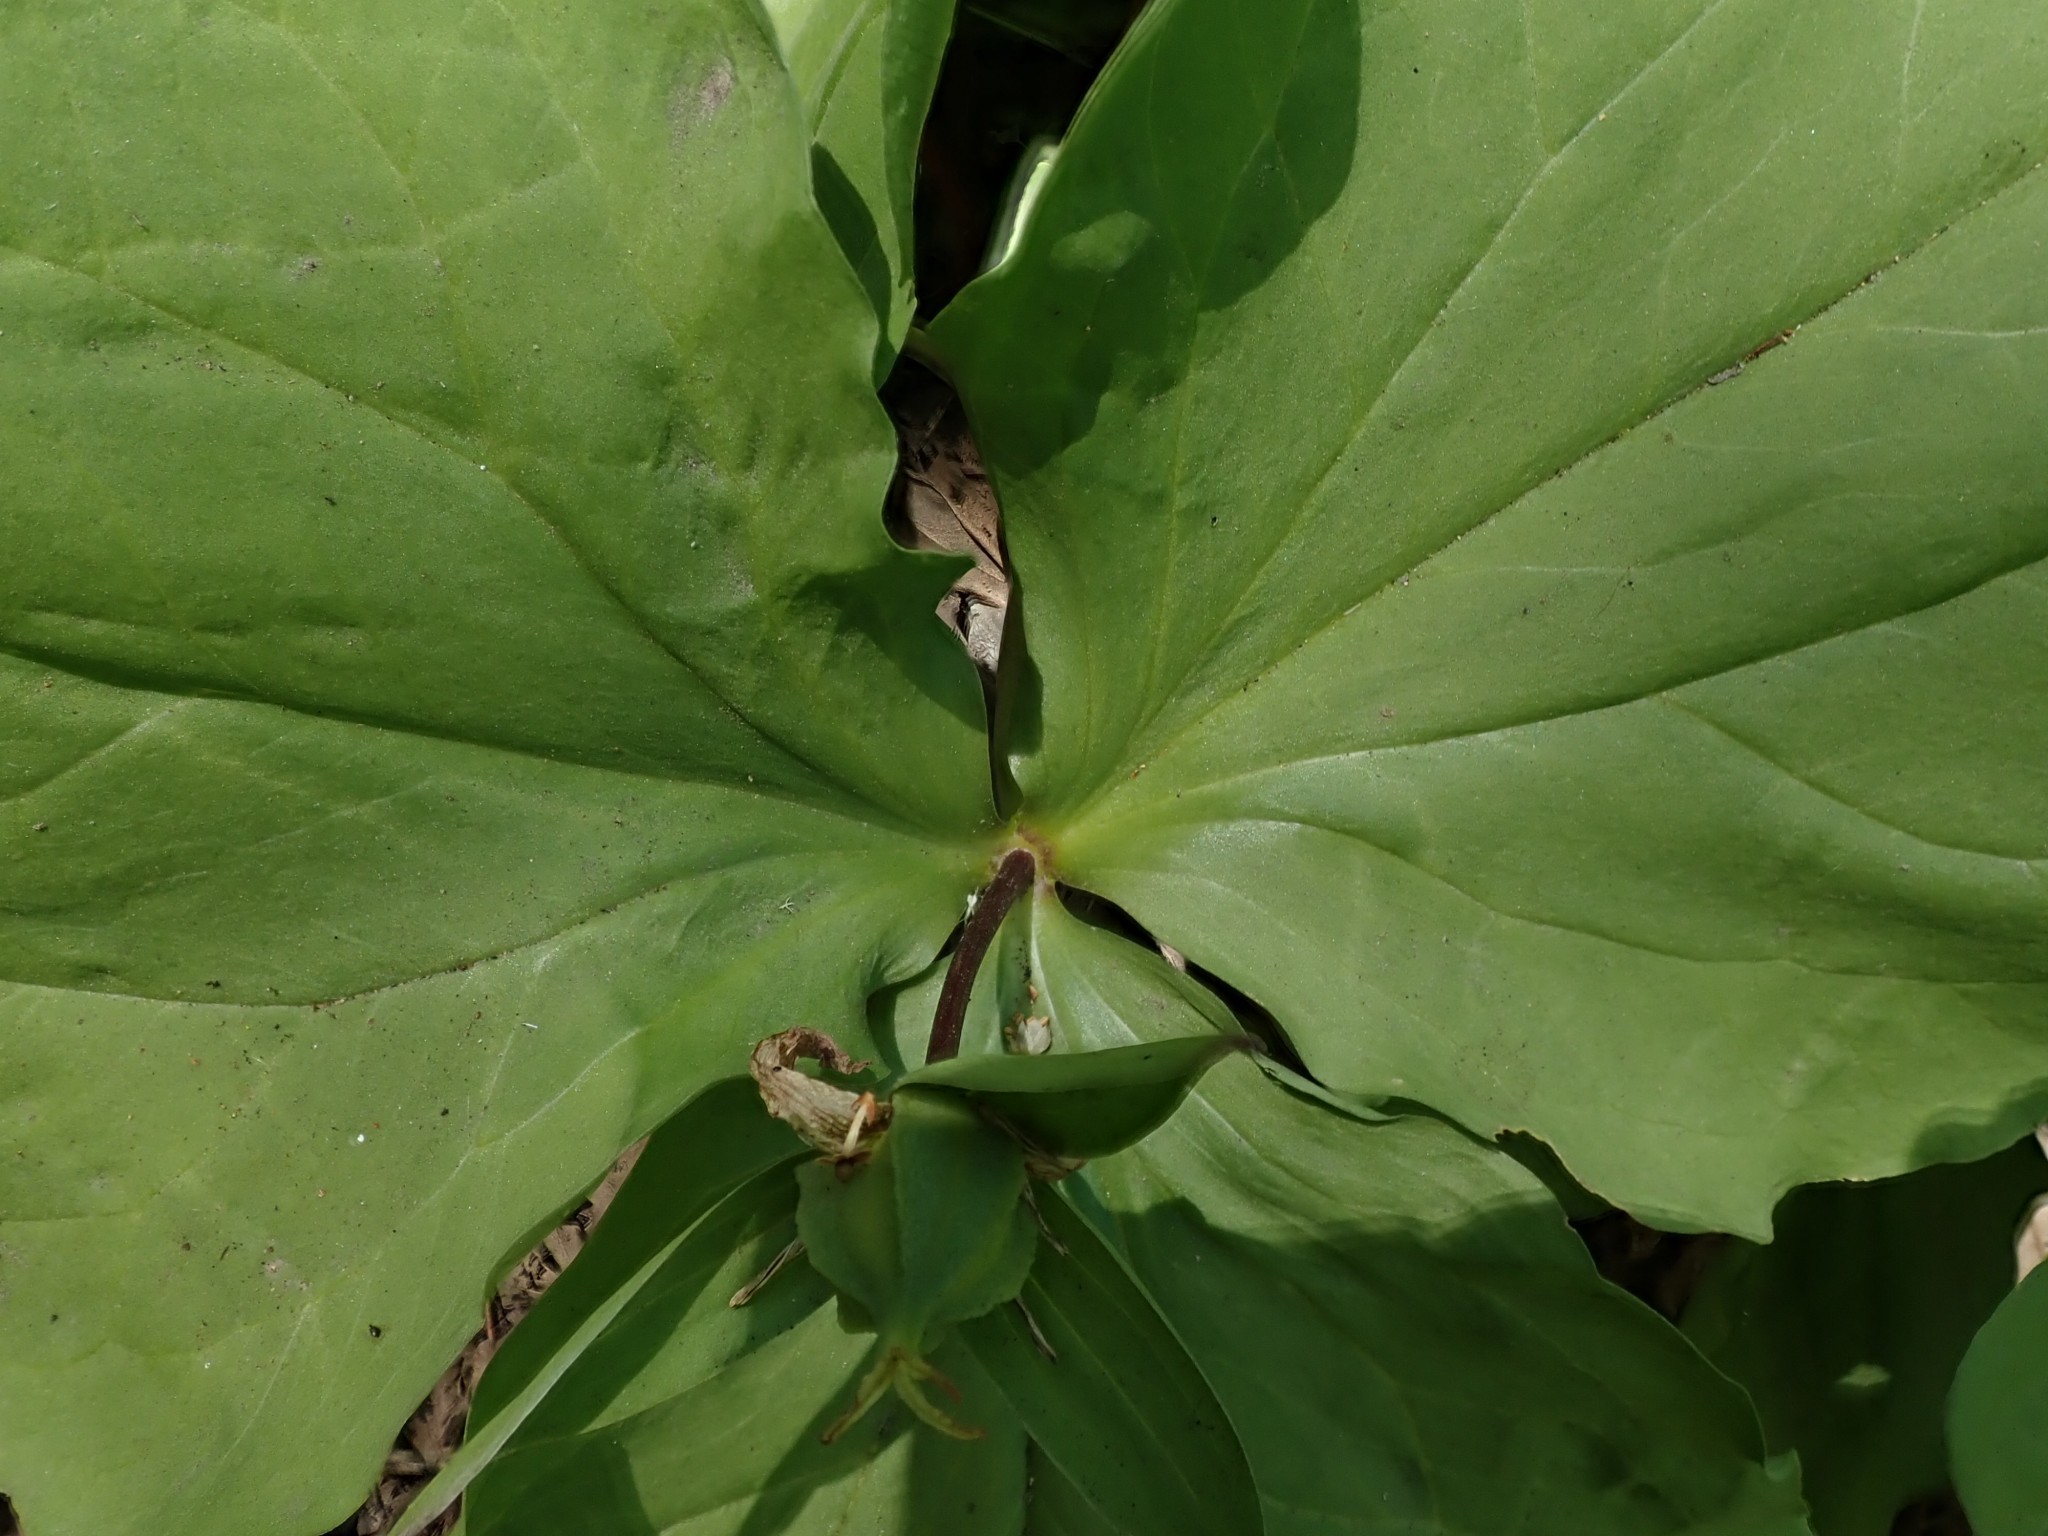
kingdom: Plantae
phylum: Tracheophyta
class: Liliopsida
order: Liliales
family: Melanthiaceae
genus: Trillium
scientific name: Trillium ovatum
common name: Pacific trillium
